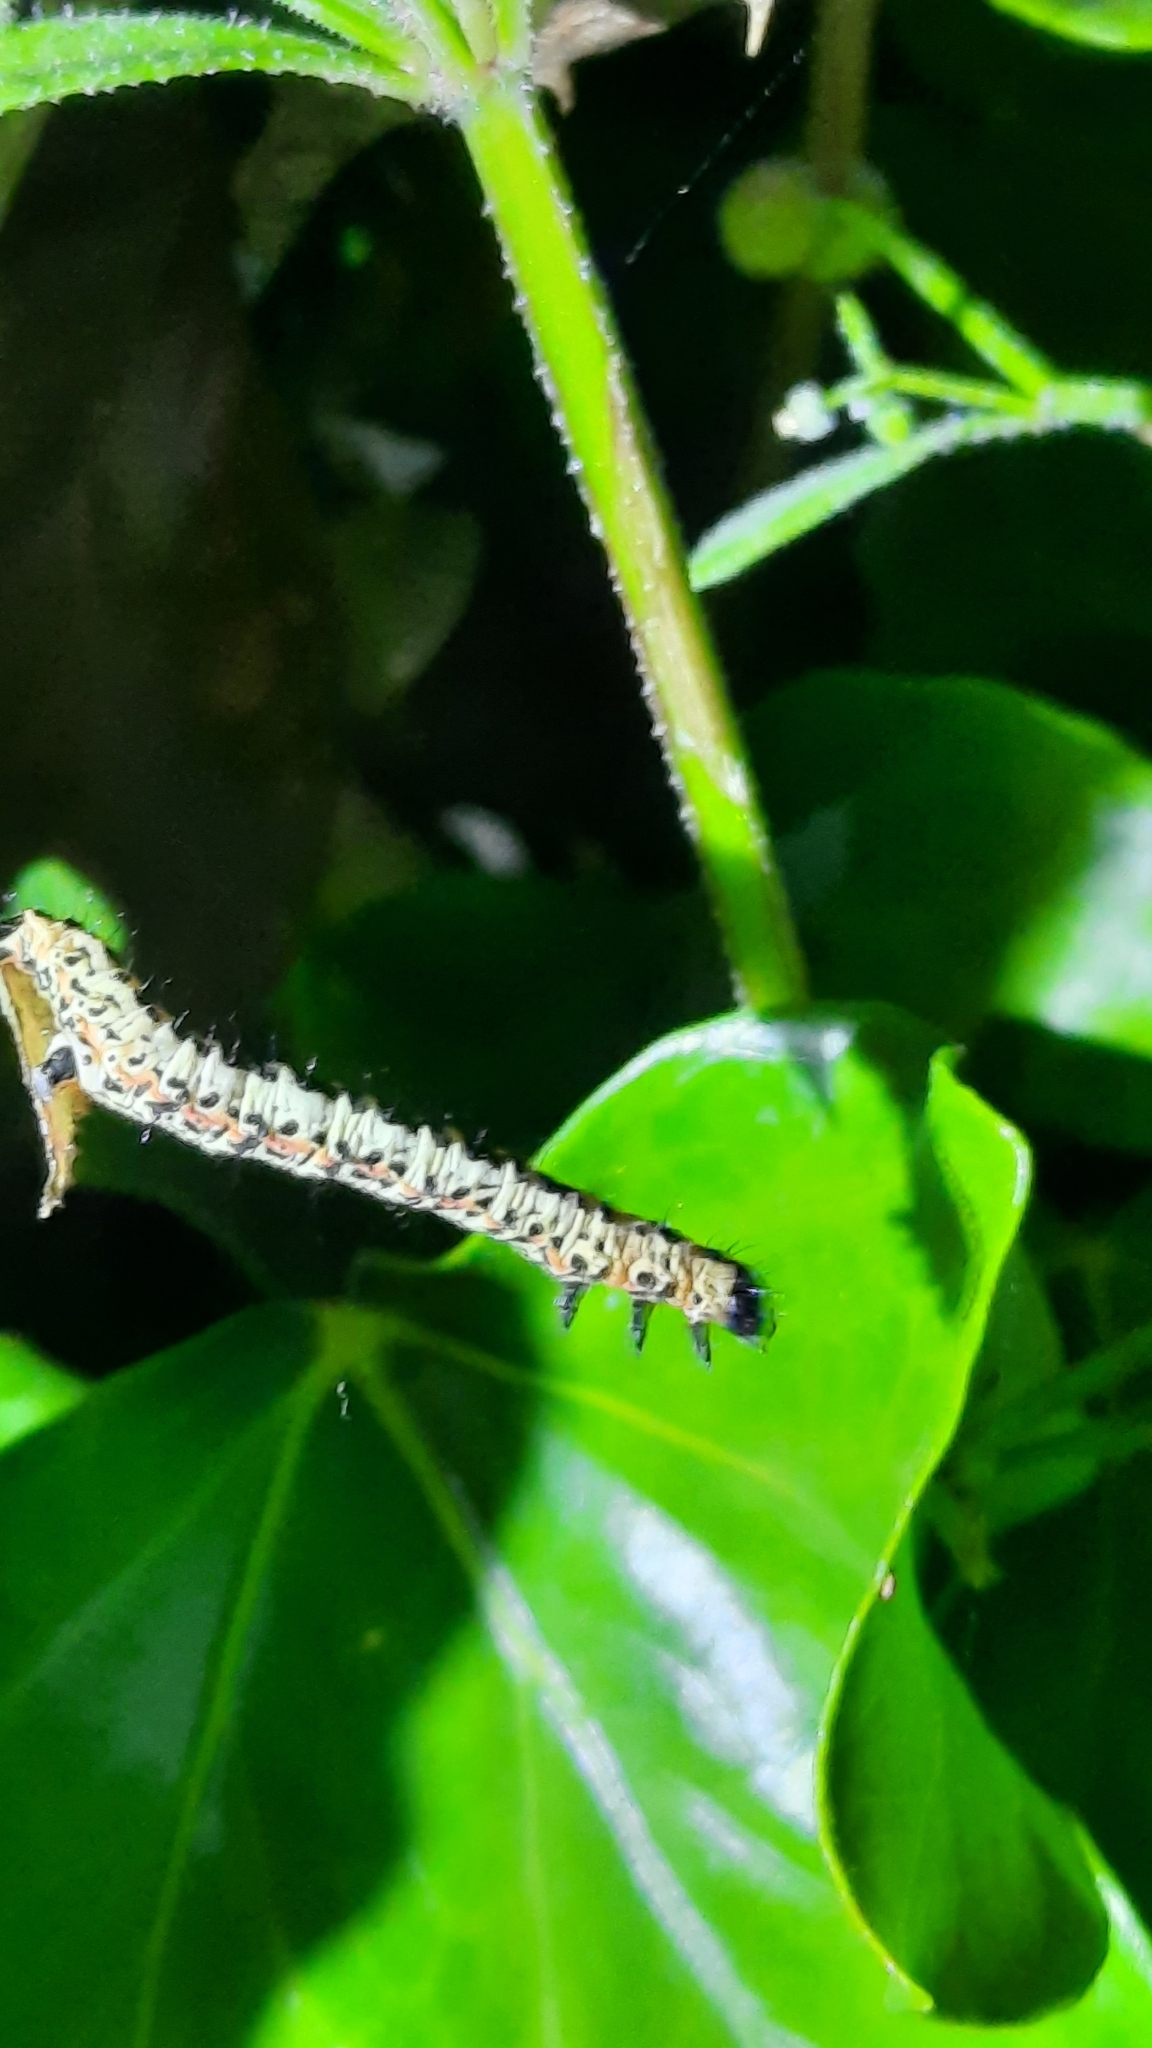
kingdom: Animalia
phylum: Arthropoda
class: Insecta
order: Lepidoptera
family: Geometridae
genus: Abraxas
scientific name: Abraxas grossulariata
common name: Magpie
